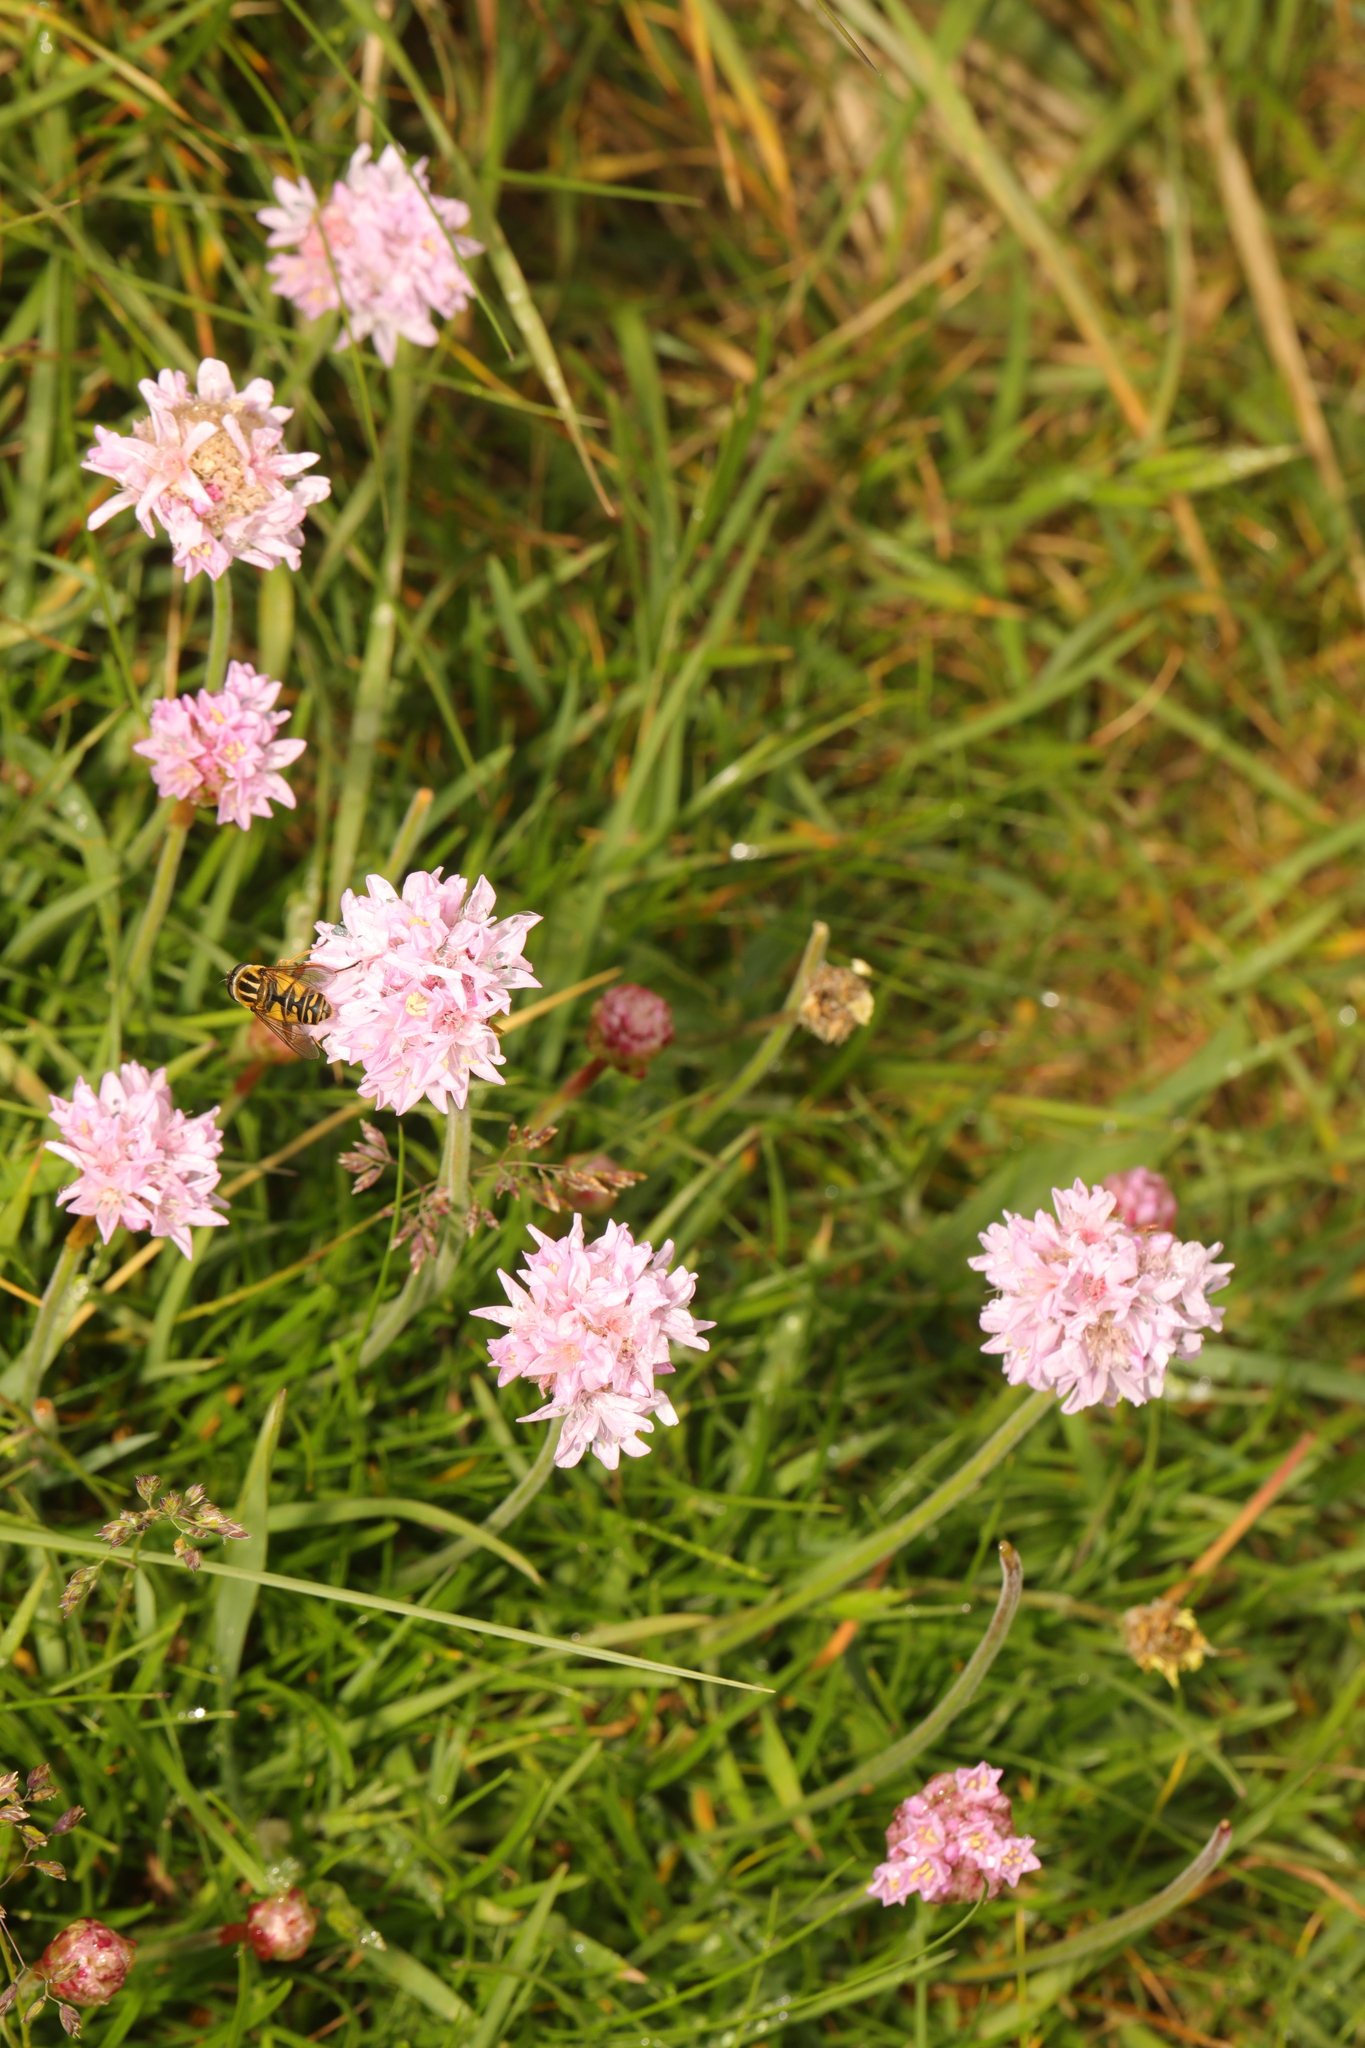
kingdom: Plantae
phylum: Tracheophyta
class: Magnoliopsida
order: Caryophyllales
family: Plumbaginaceae
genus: Armeria
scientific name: Armeria maritima
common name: Thrift
